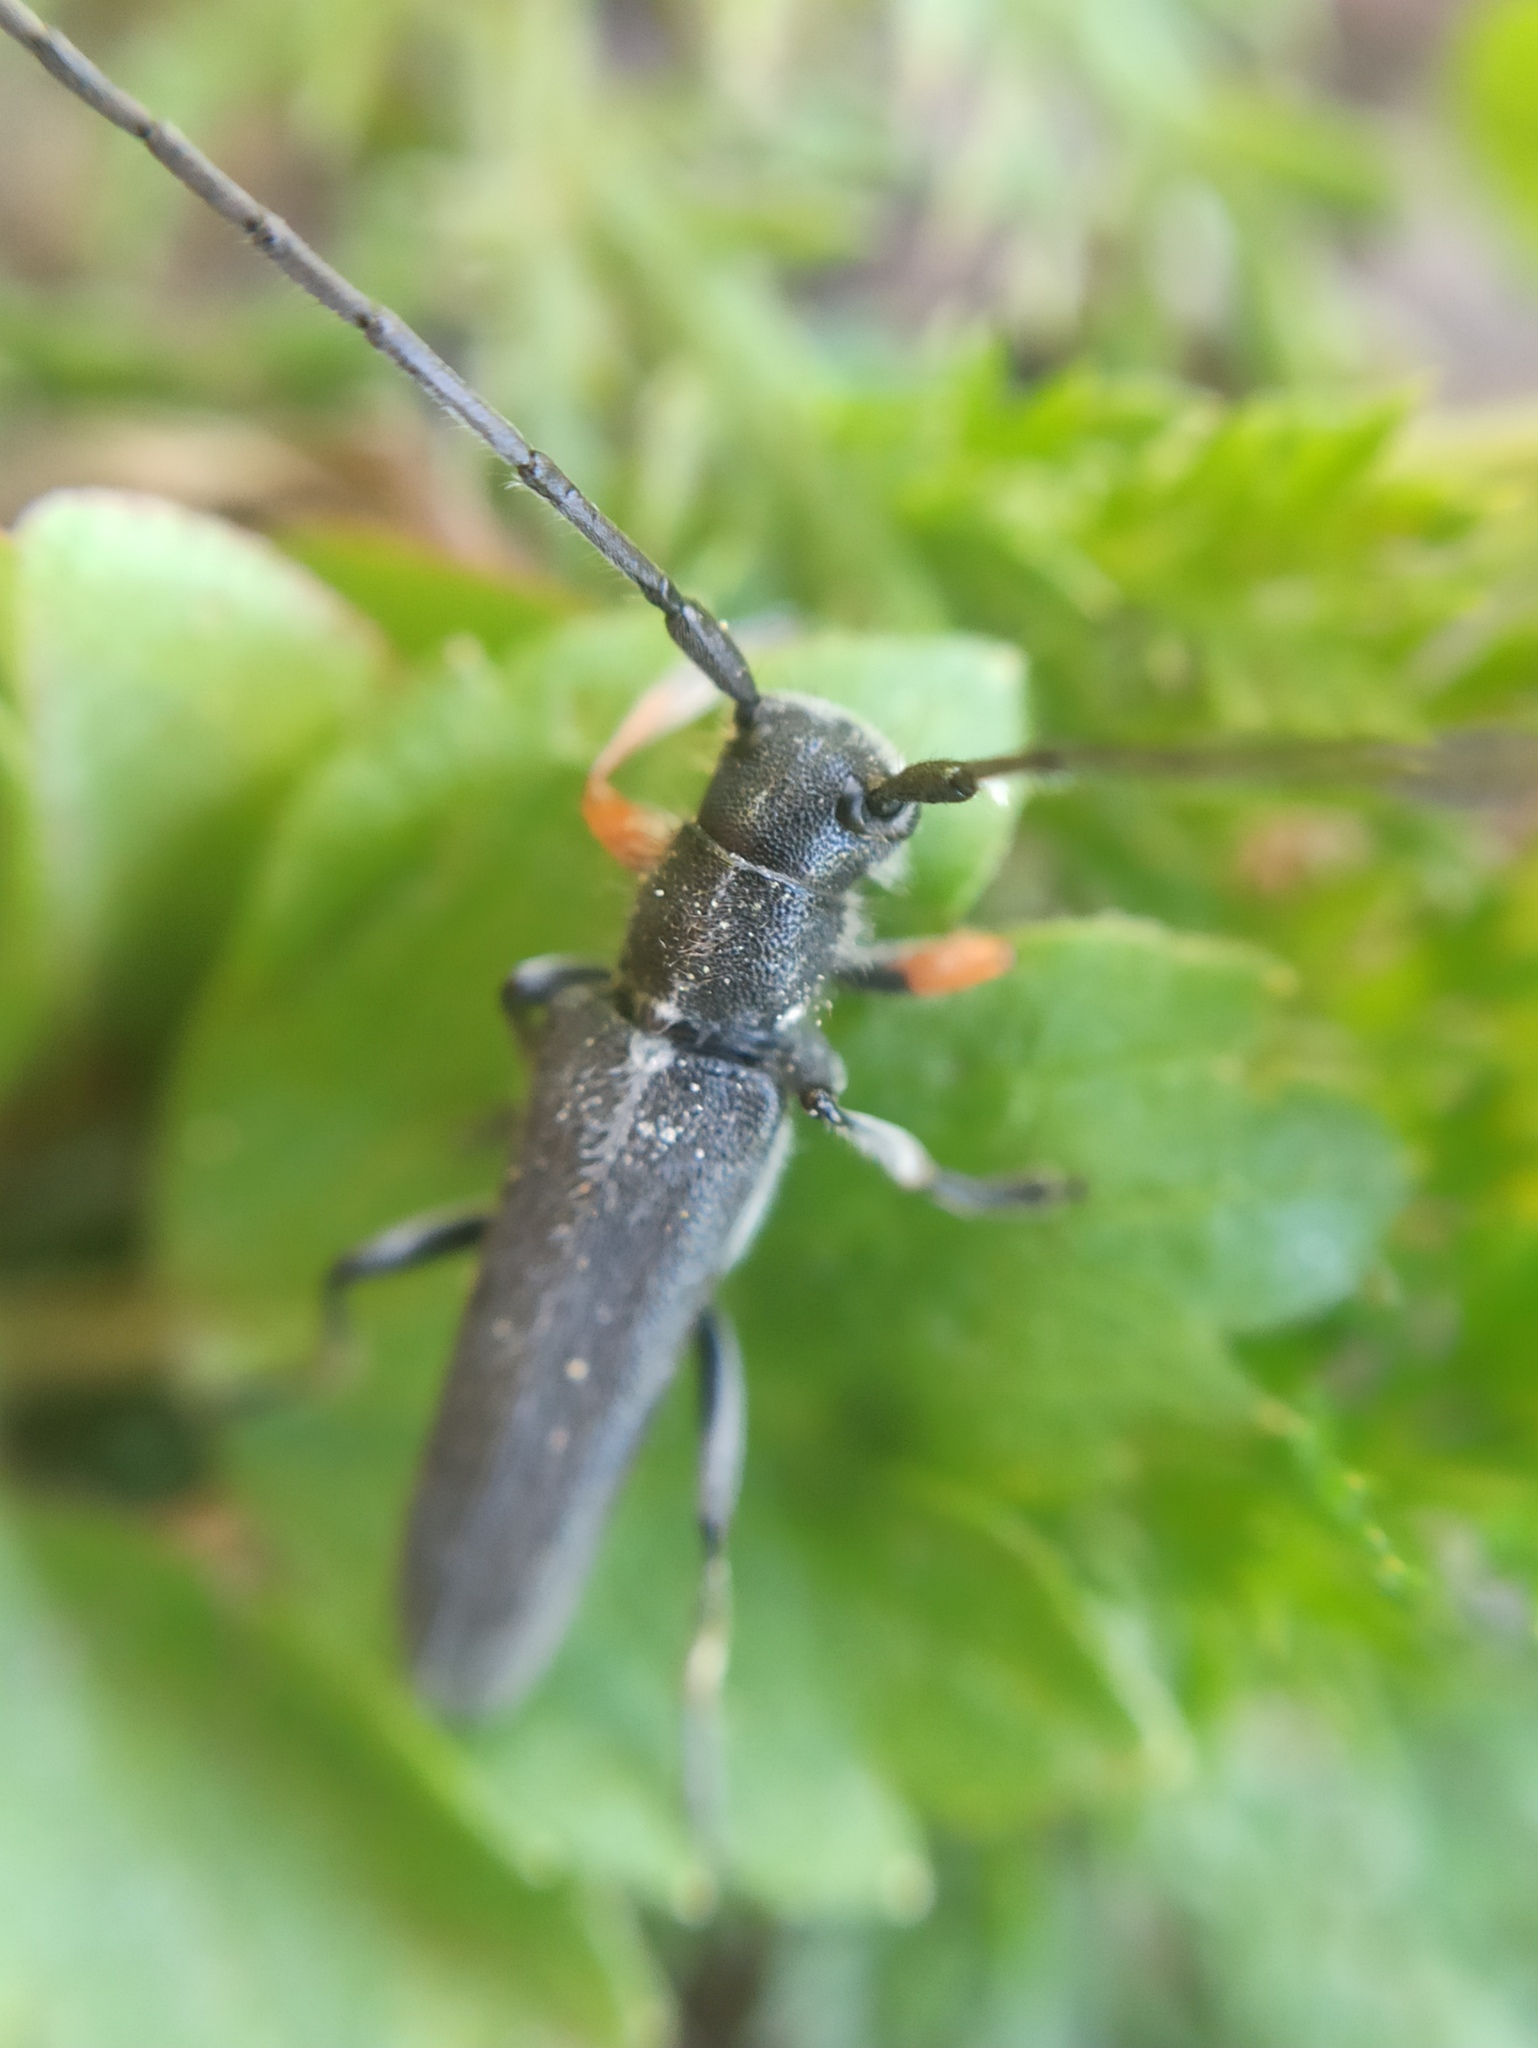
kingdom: Animalia
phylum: Arthropoda
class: Insecta
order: Coleoptera
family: Cerambycidae
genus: Phytoecia
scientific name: Phytoecia cylindrica
